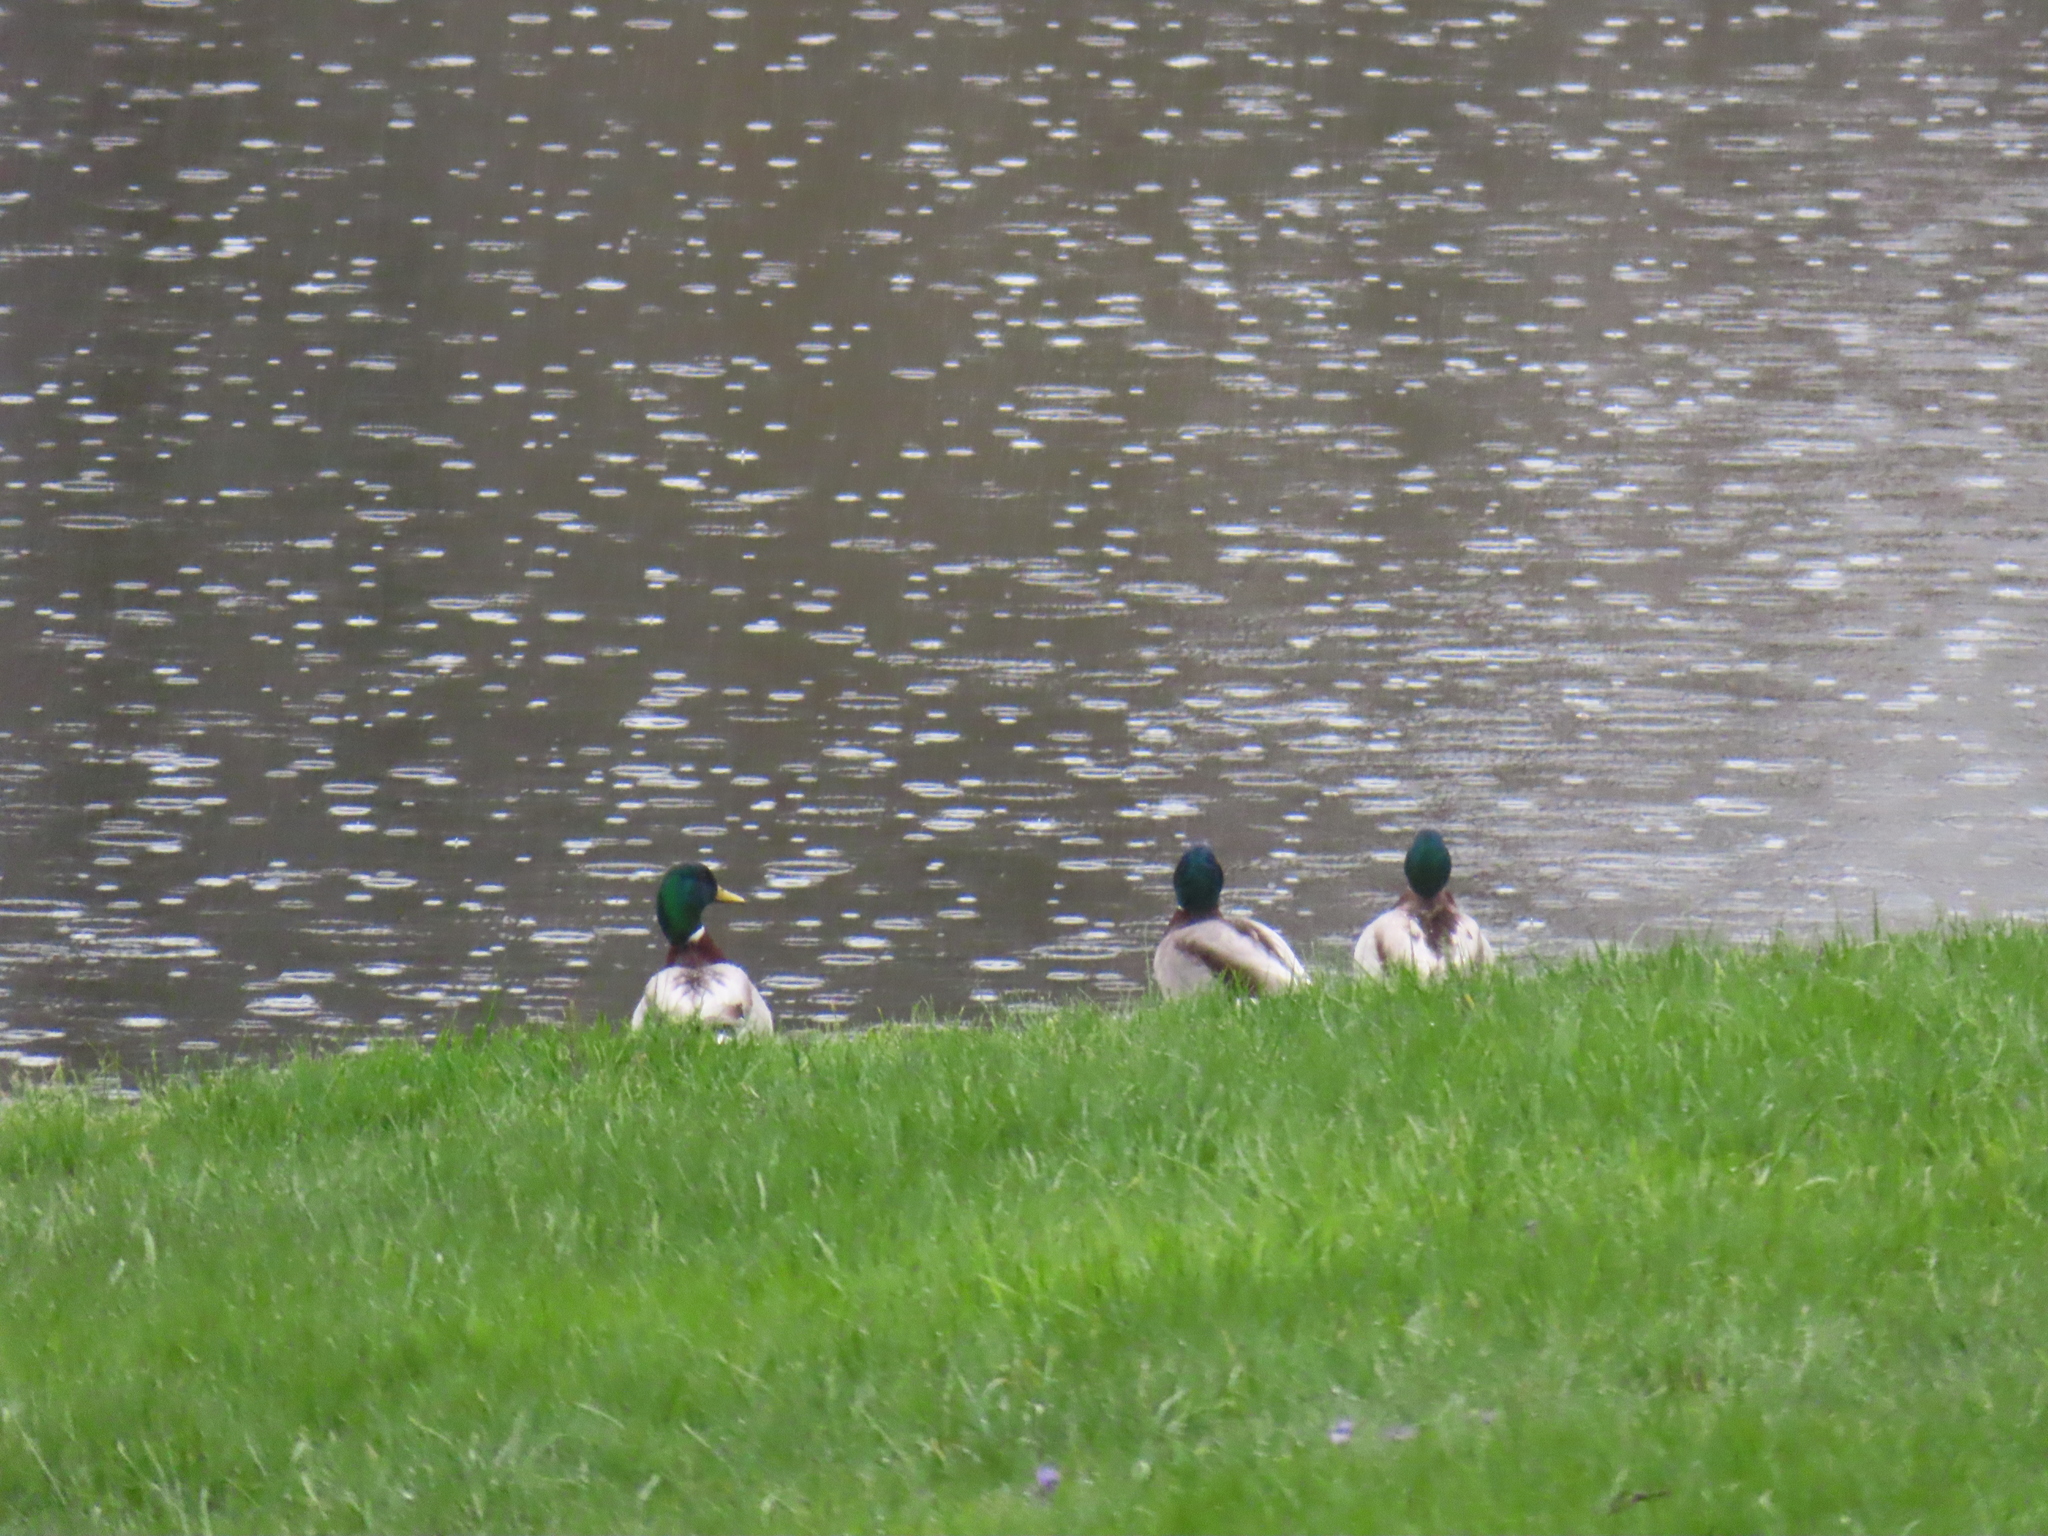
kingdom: Animalia
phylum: Chordata
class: Aves
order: Anseriformes
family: Anatidae
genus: Anas
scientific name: Anas platyrhynchos
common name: Mallard
